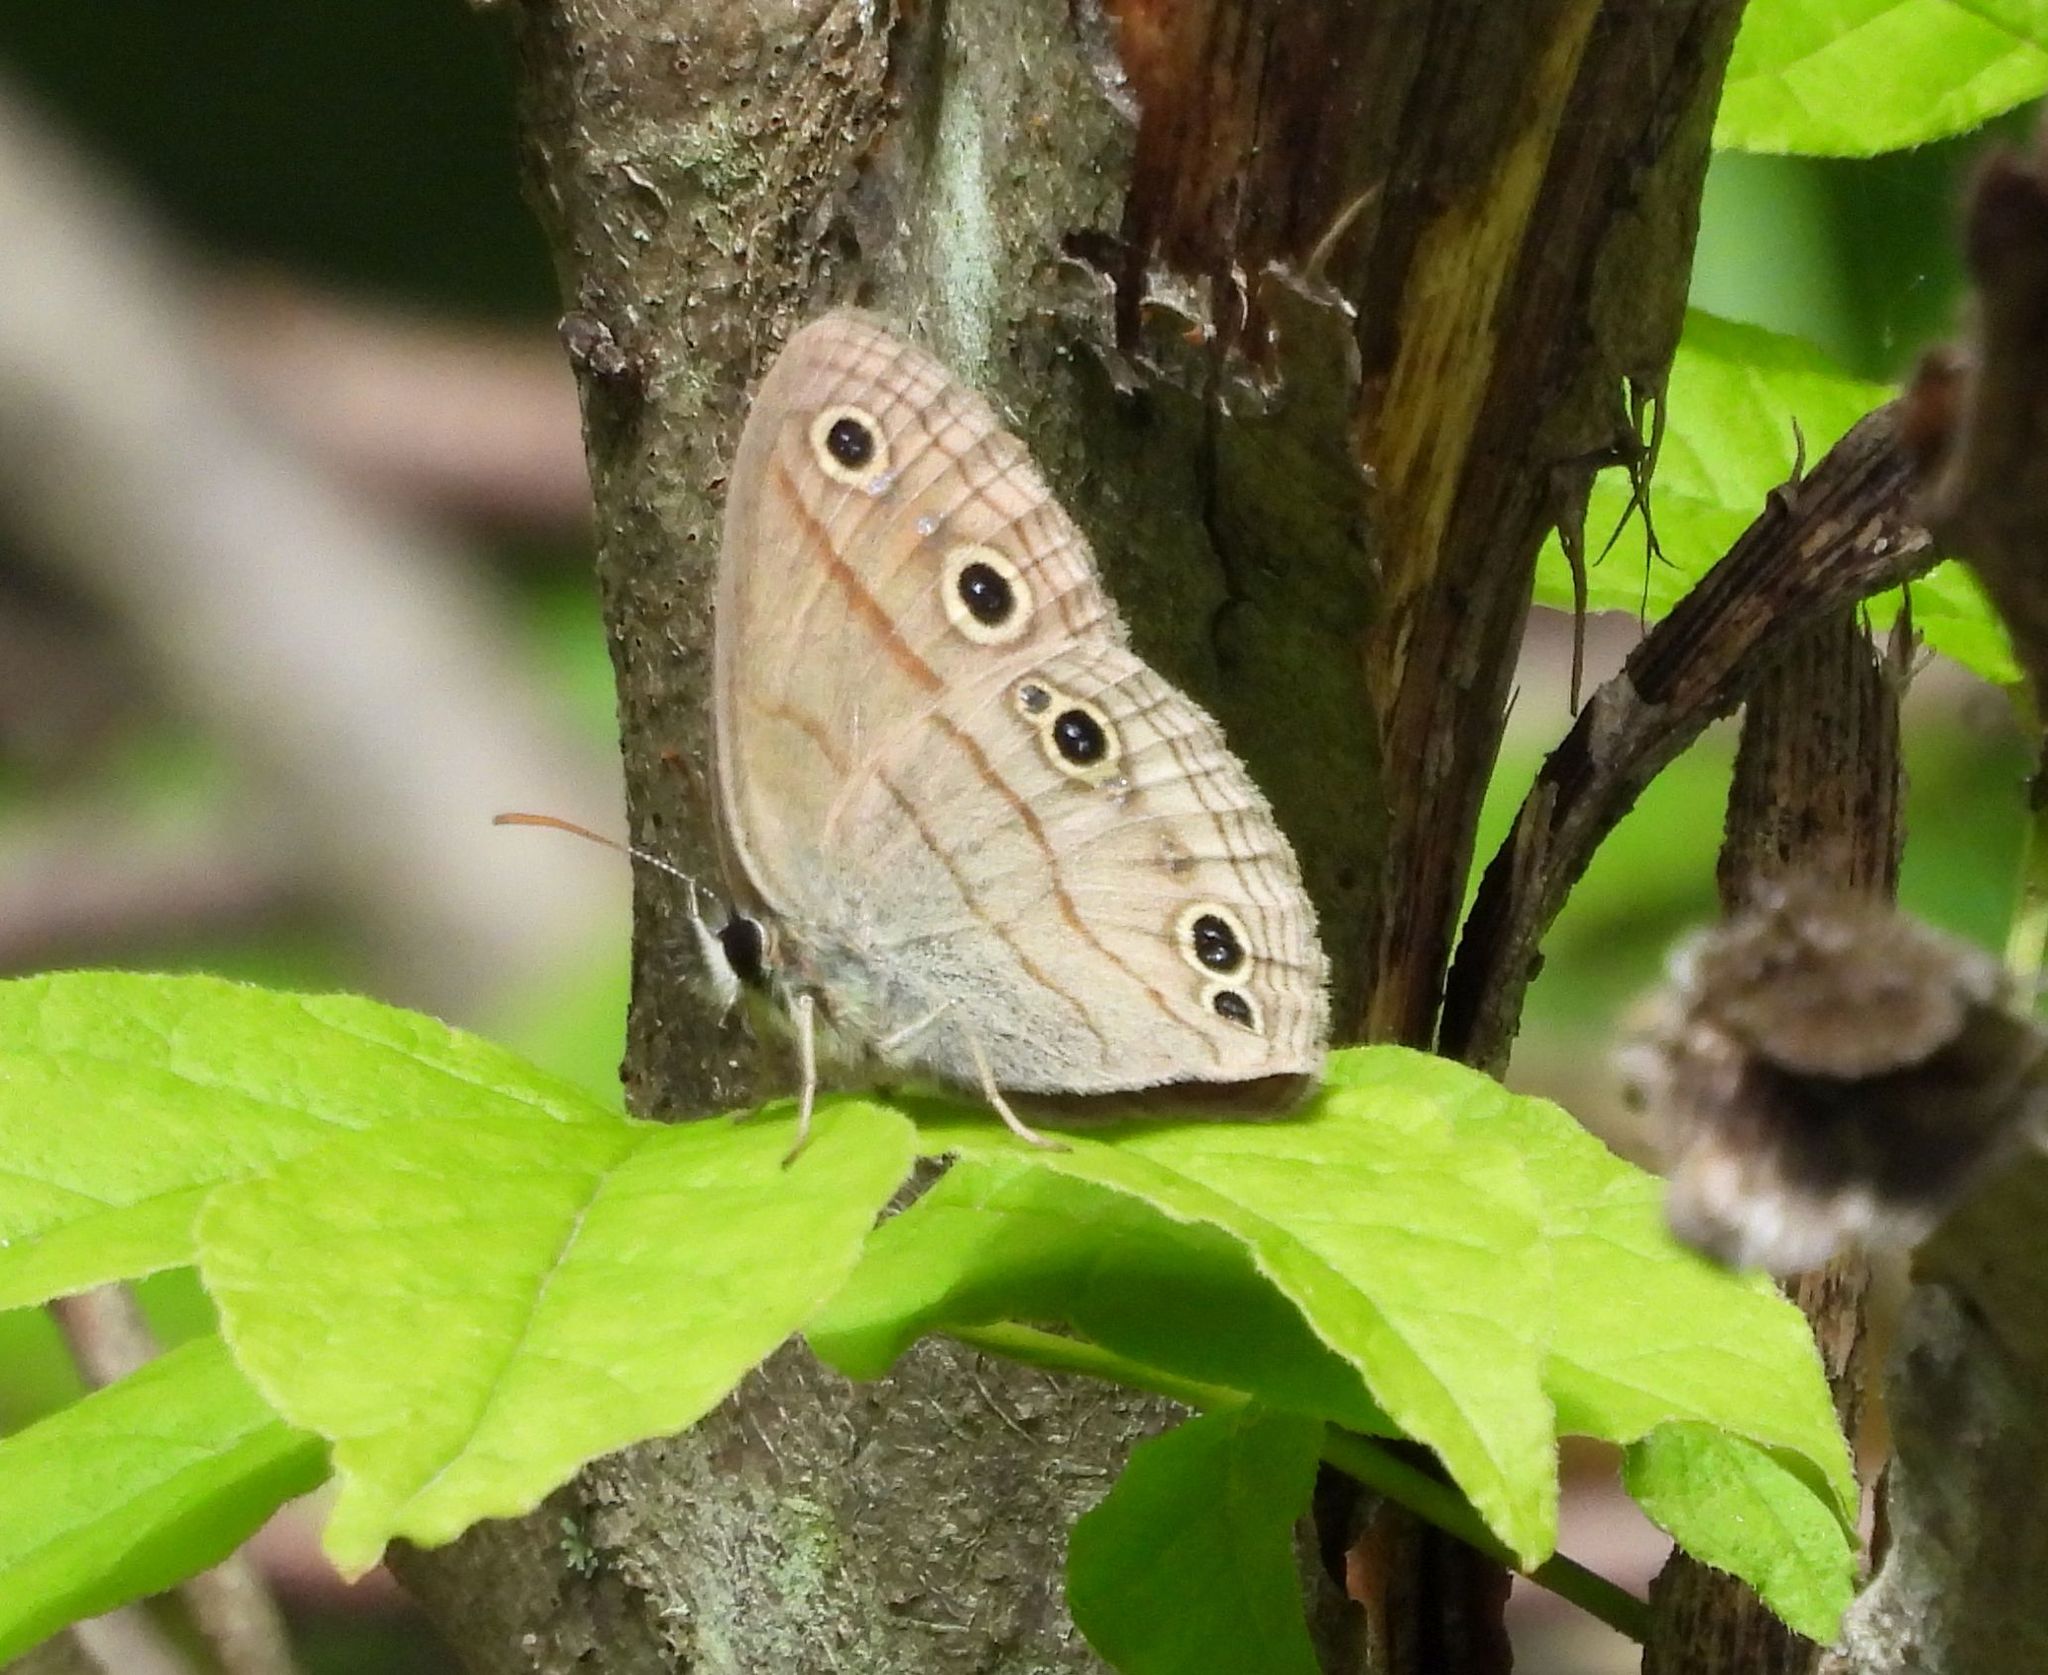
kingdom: Animalia
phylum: Arthropoda
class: Insecta
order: Lepidoptera
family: Nymphalidae
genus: Euptychia
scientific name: Euptychia cymela
